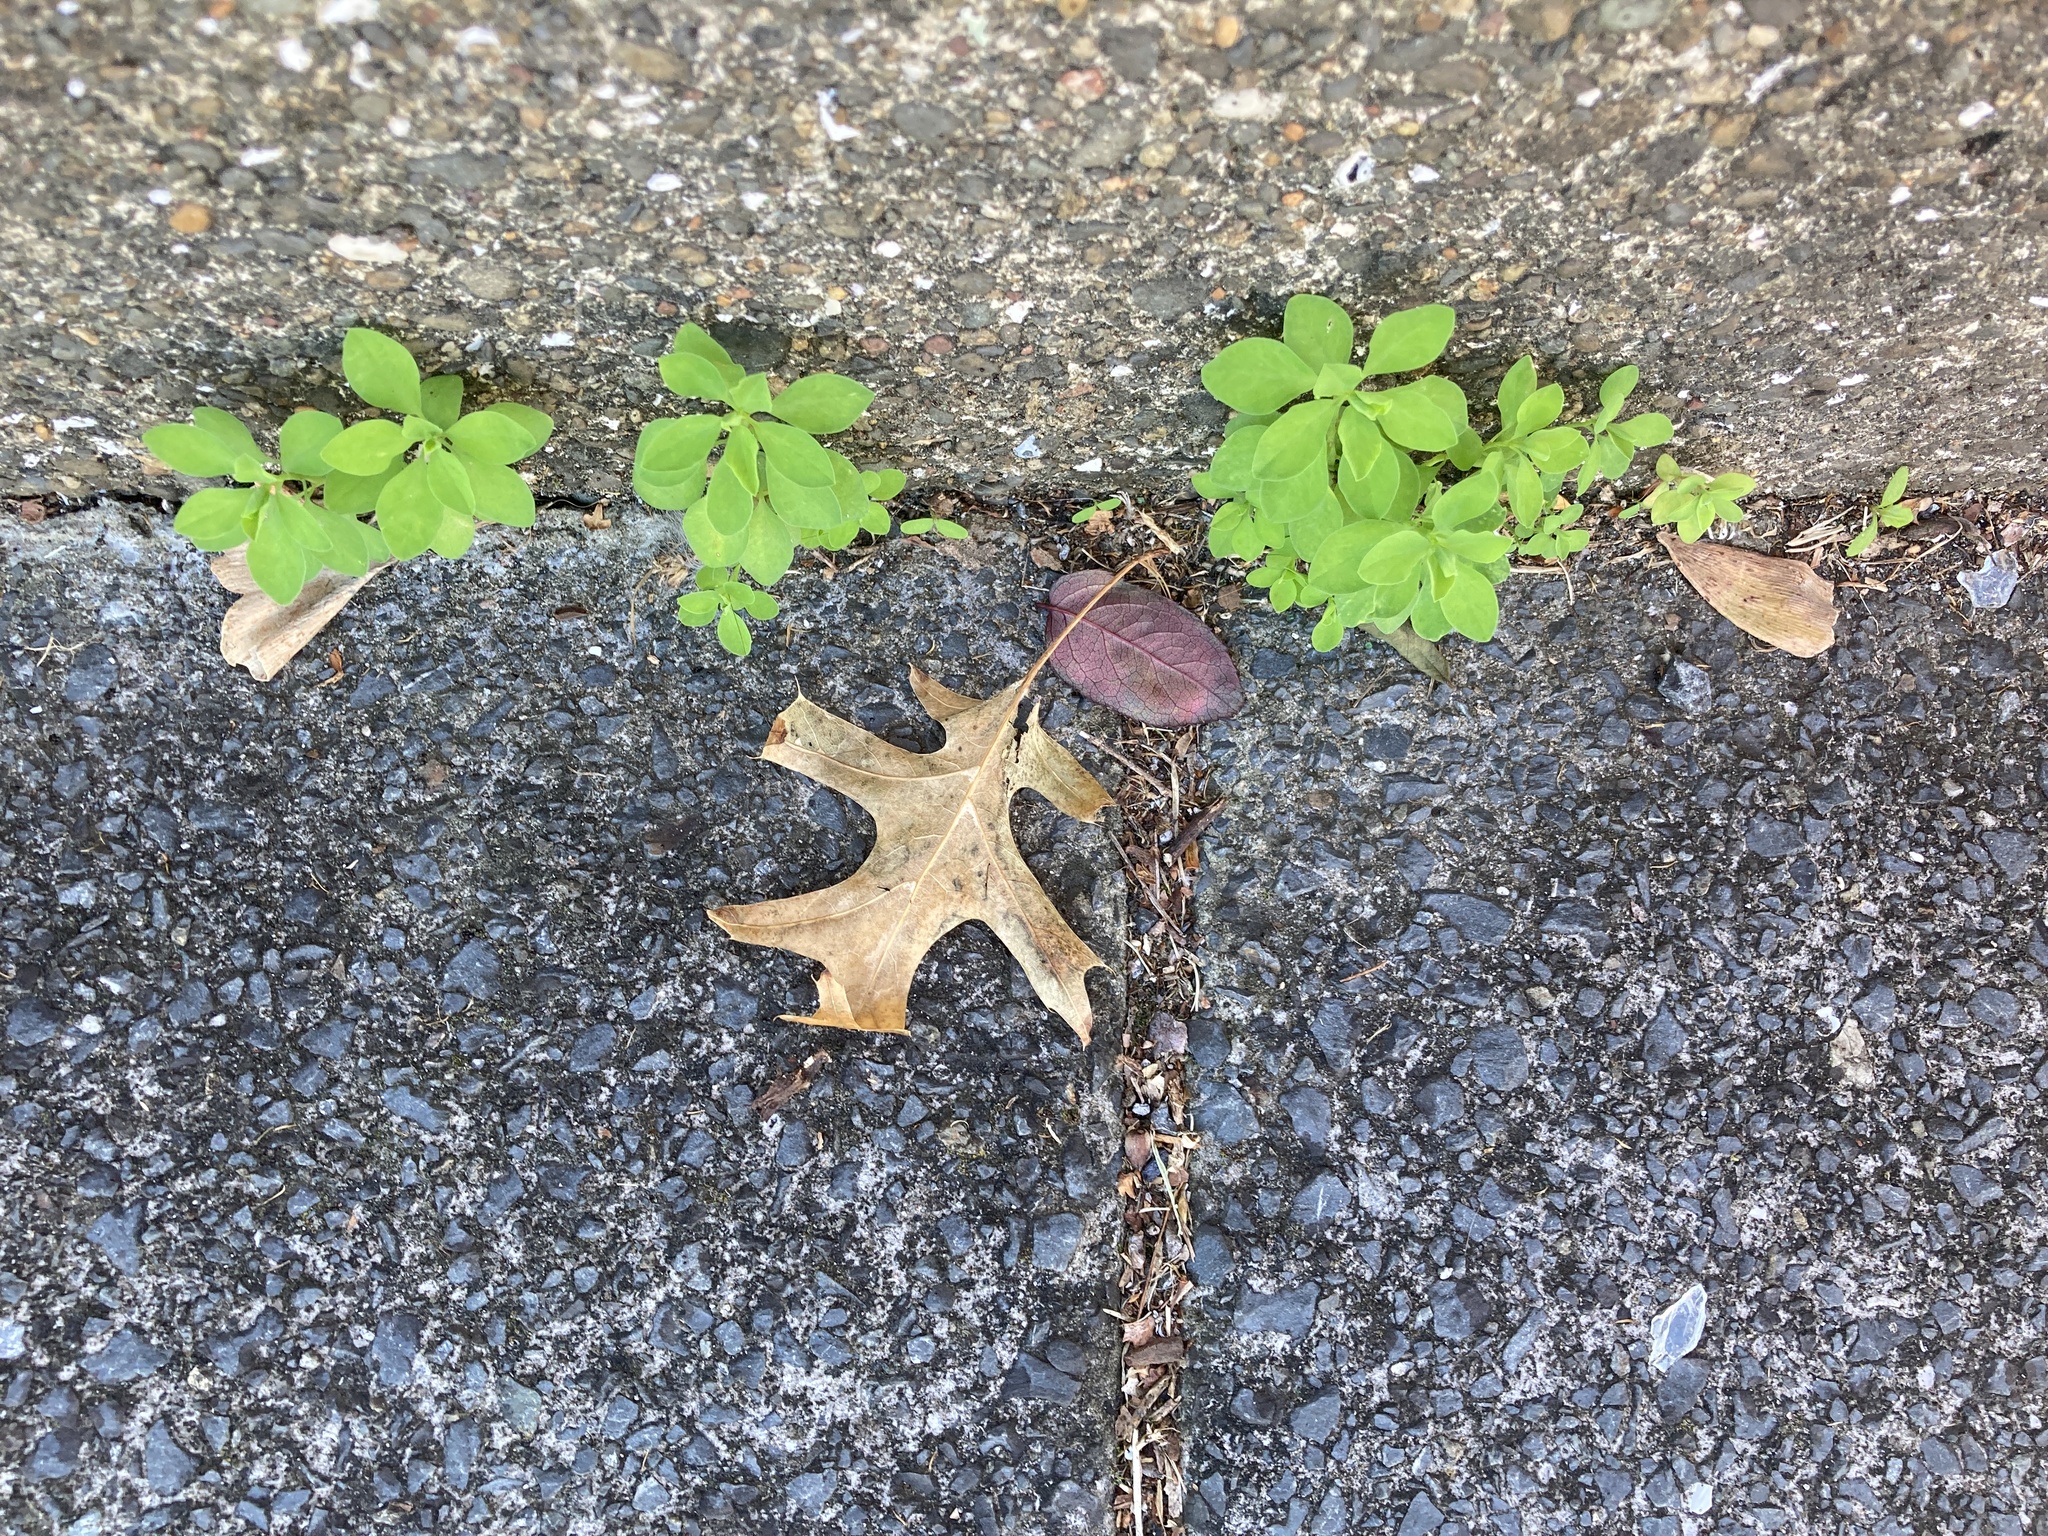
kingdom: Plantae
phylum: Tracheophyta
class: Magnoliopsida
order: Malpighiales
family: Euphorbiaceae
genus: Euphorbia
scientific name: Euphorbia peplus
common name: Petty spurge
